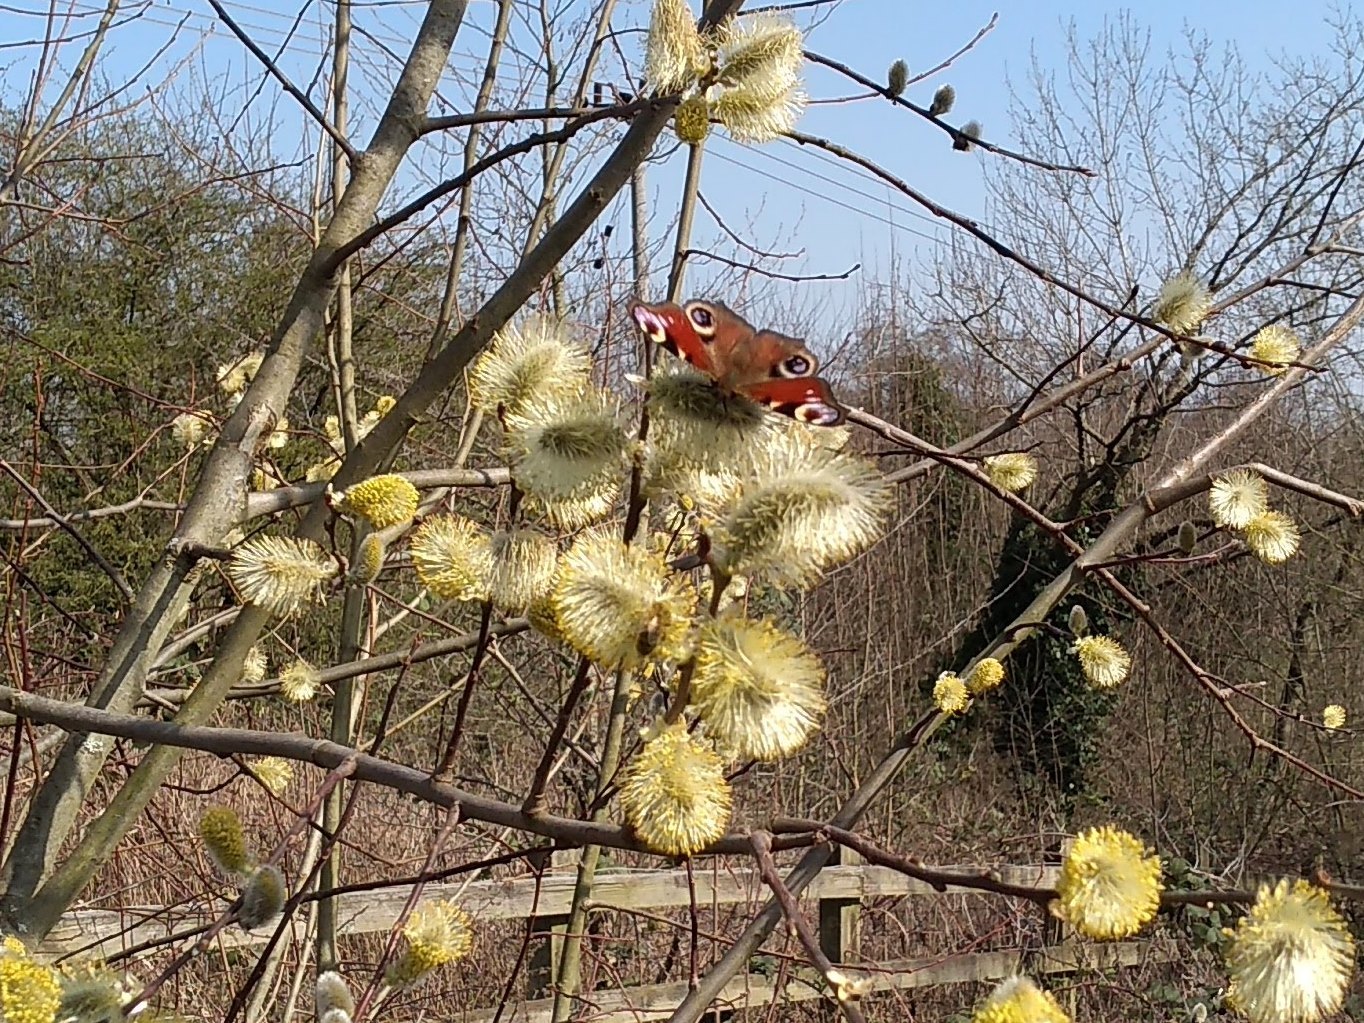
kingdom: Animalia
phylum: Arthropoda
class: Insecta
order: Lepidoptera
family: Nymphalidae
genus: Aglais
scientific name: Aglais io
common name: Peacock
